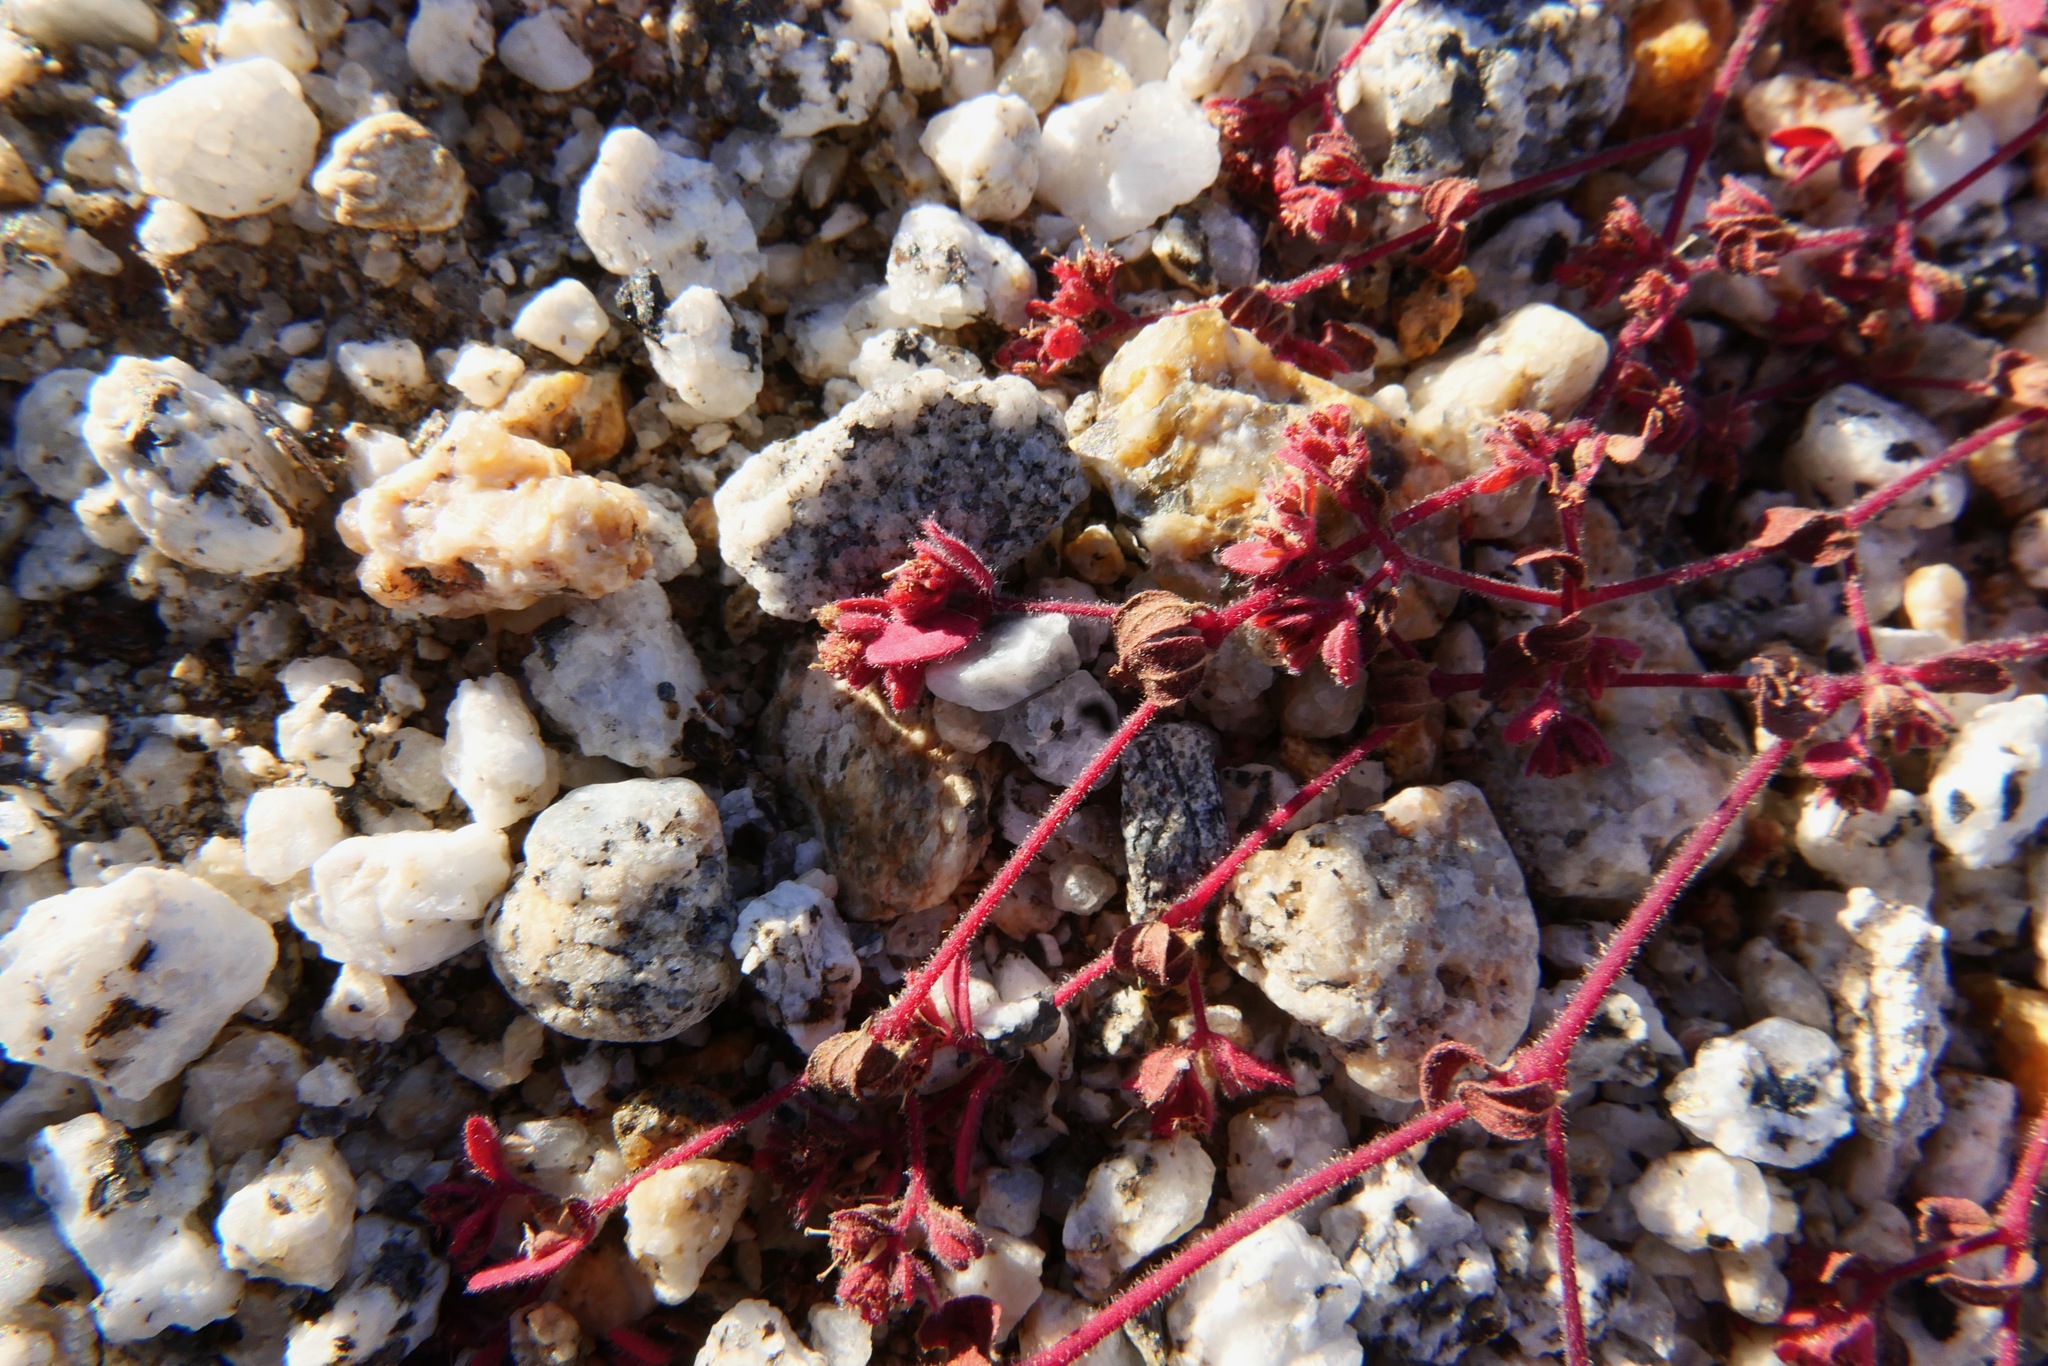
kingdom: Plantae
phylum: Tracheophyta
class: Magnoliopsida
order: Malpighiales
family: Euphorbiaceae
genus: Euphorbia
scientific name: Euphorbia setiloba
